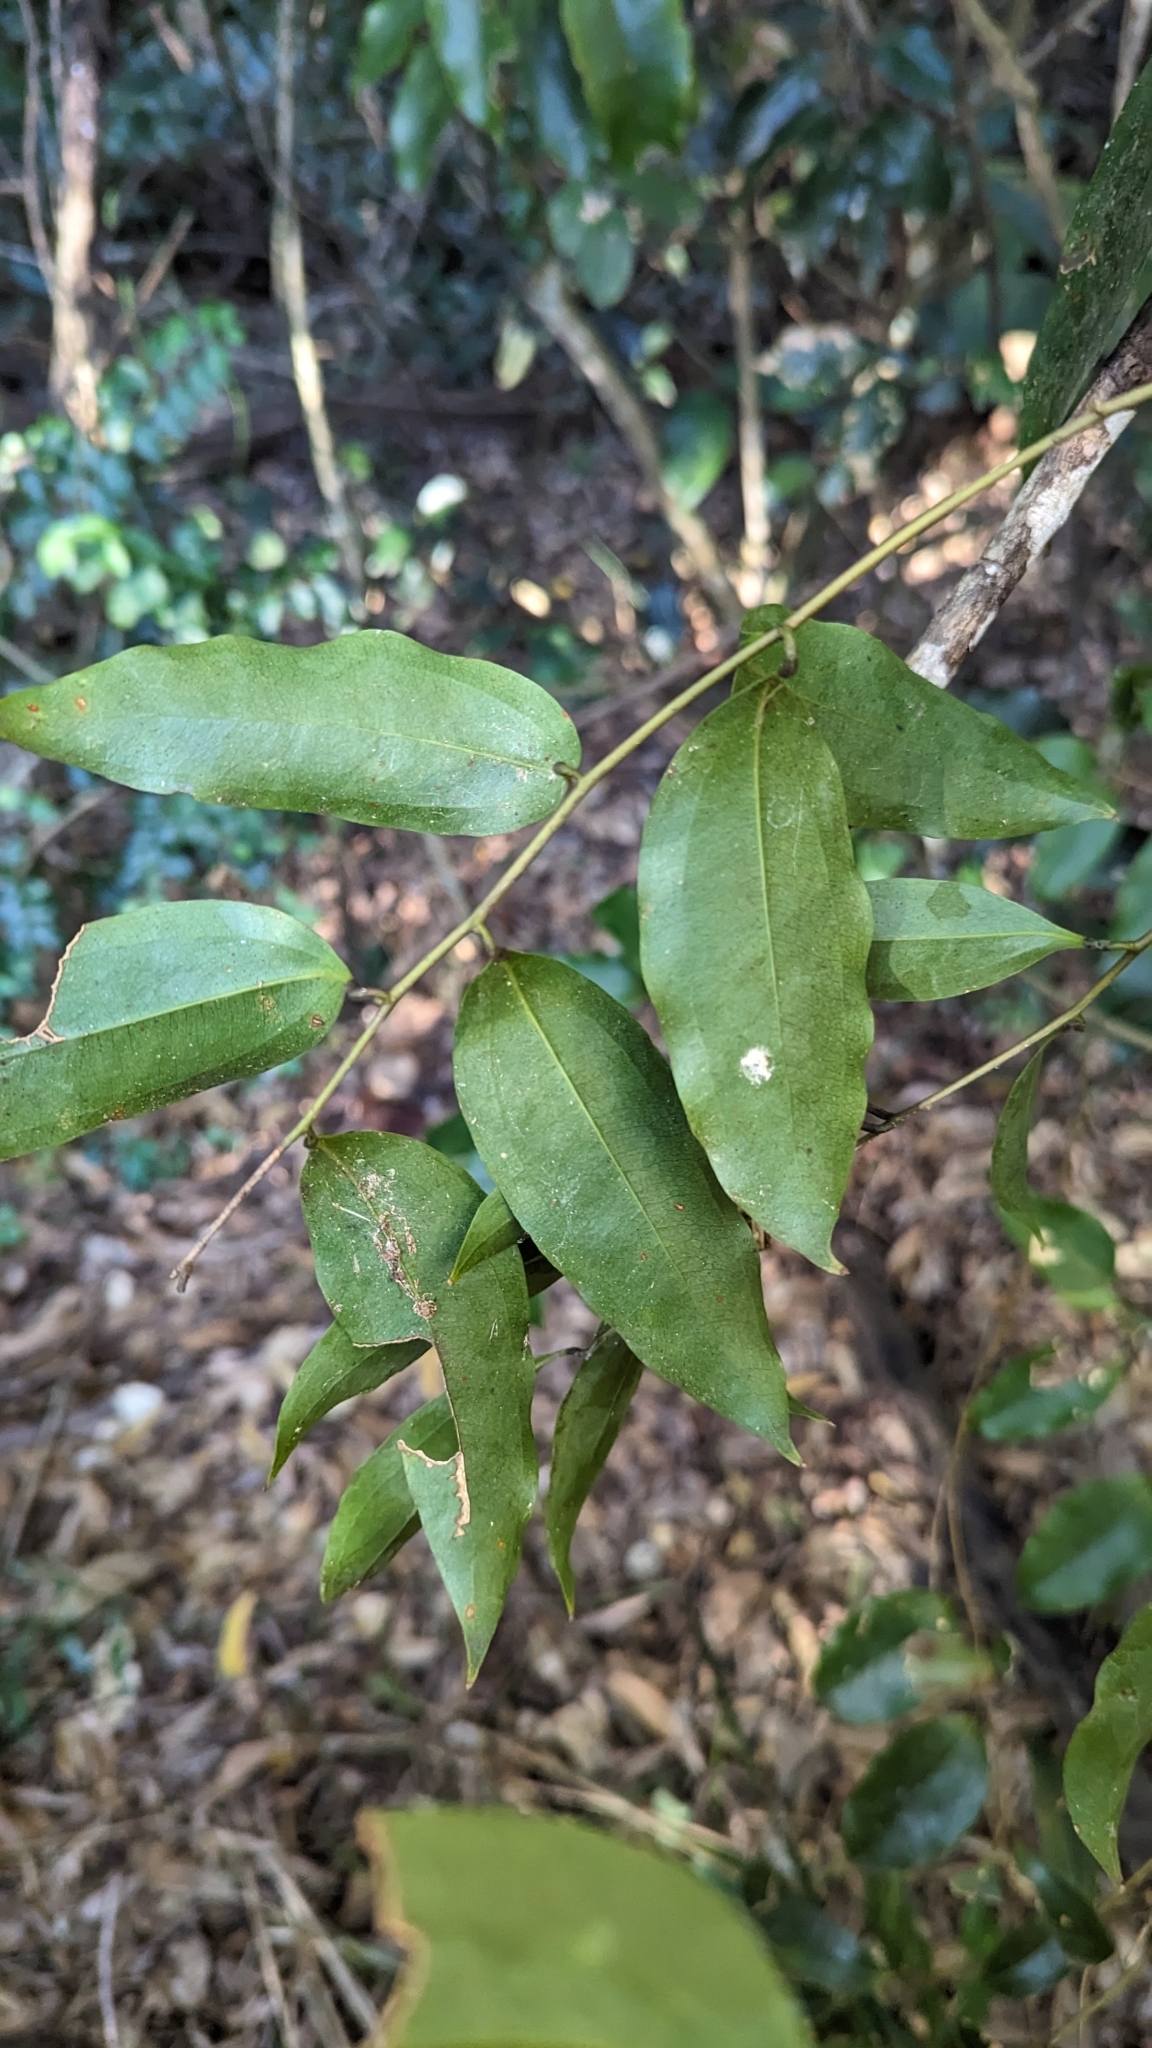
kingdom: Plantae
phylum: Tracheophyta
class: Liliopsida
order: Liliales
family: Ripogonaceae
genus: Ripogonum
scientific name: Ripogonum album
